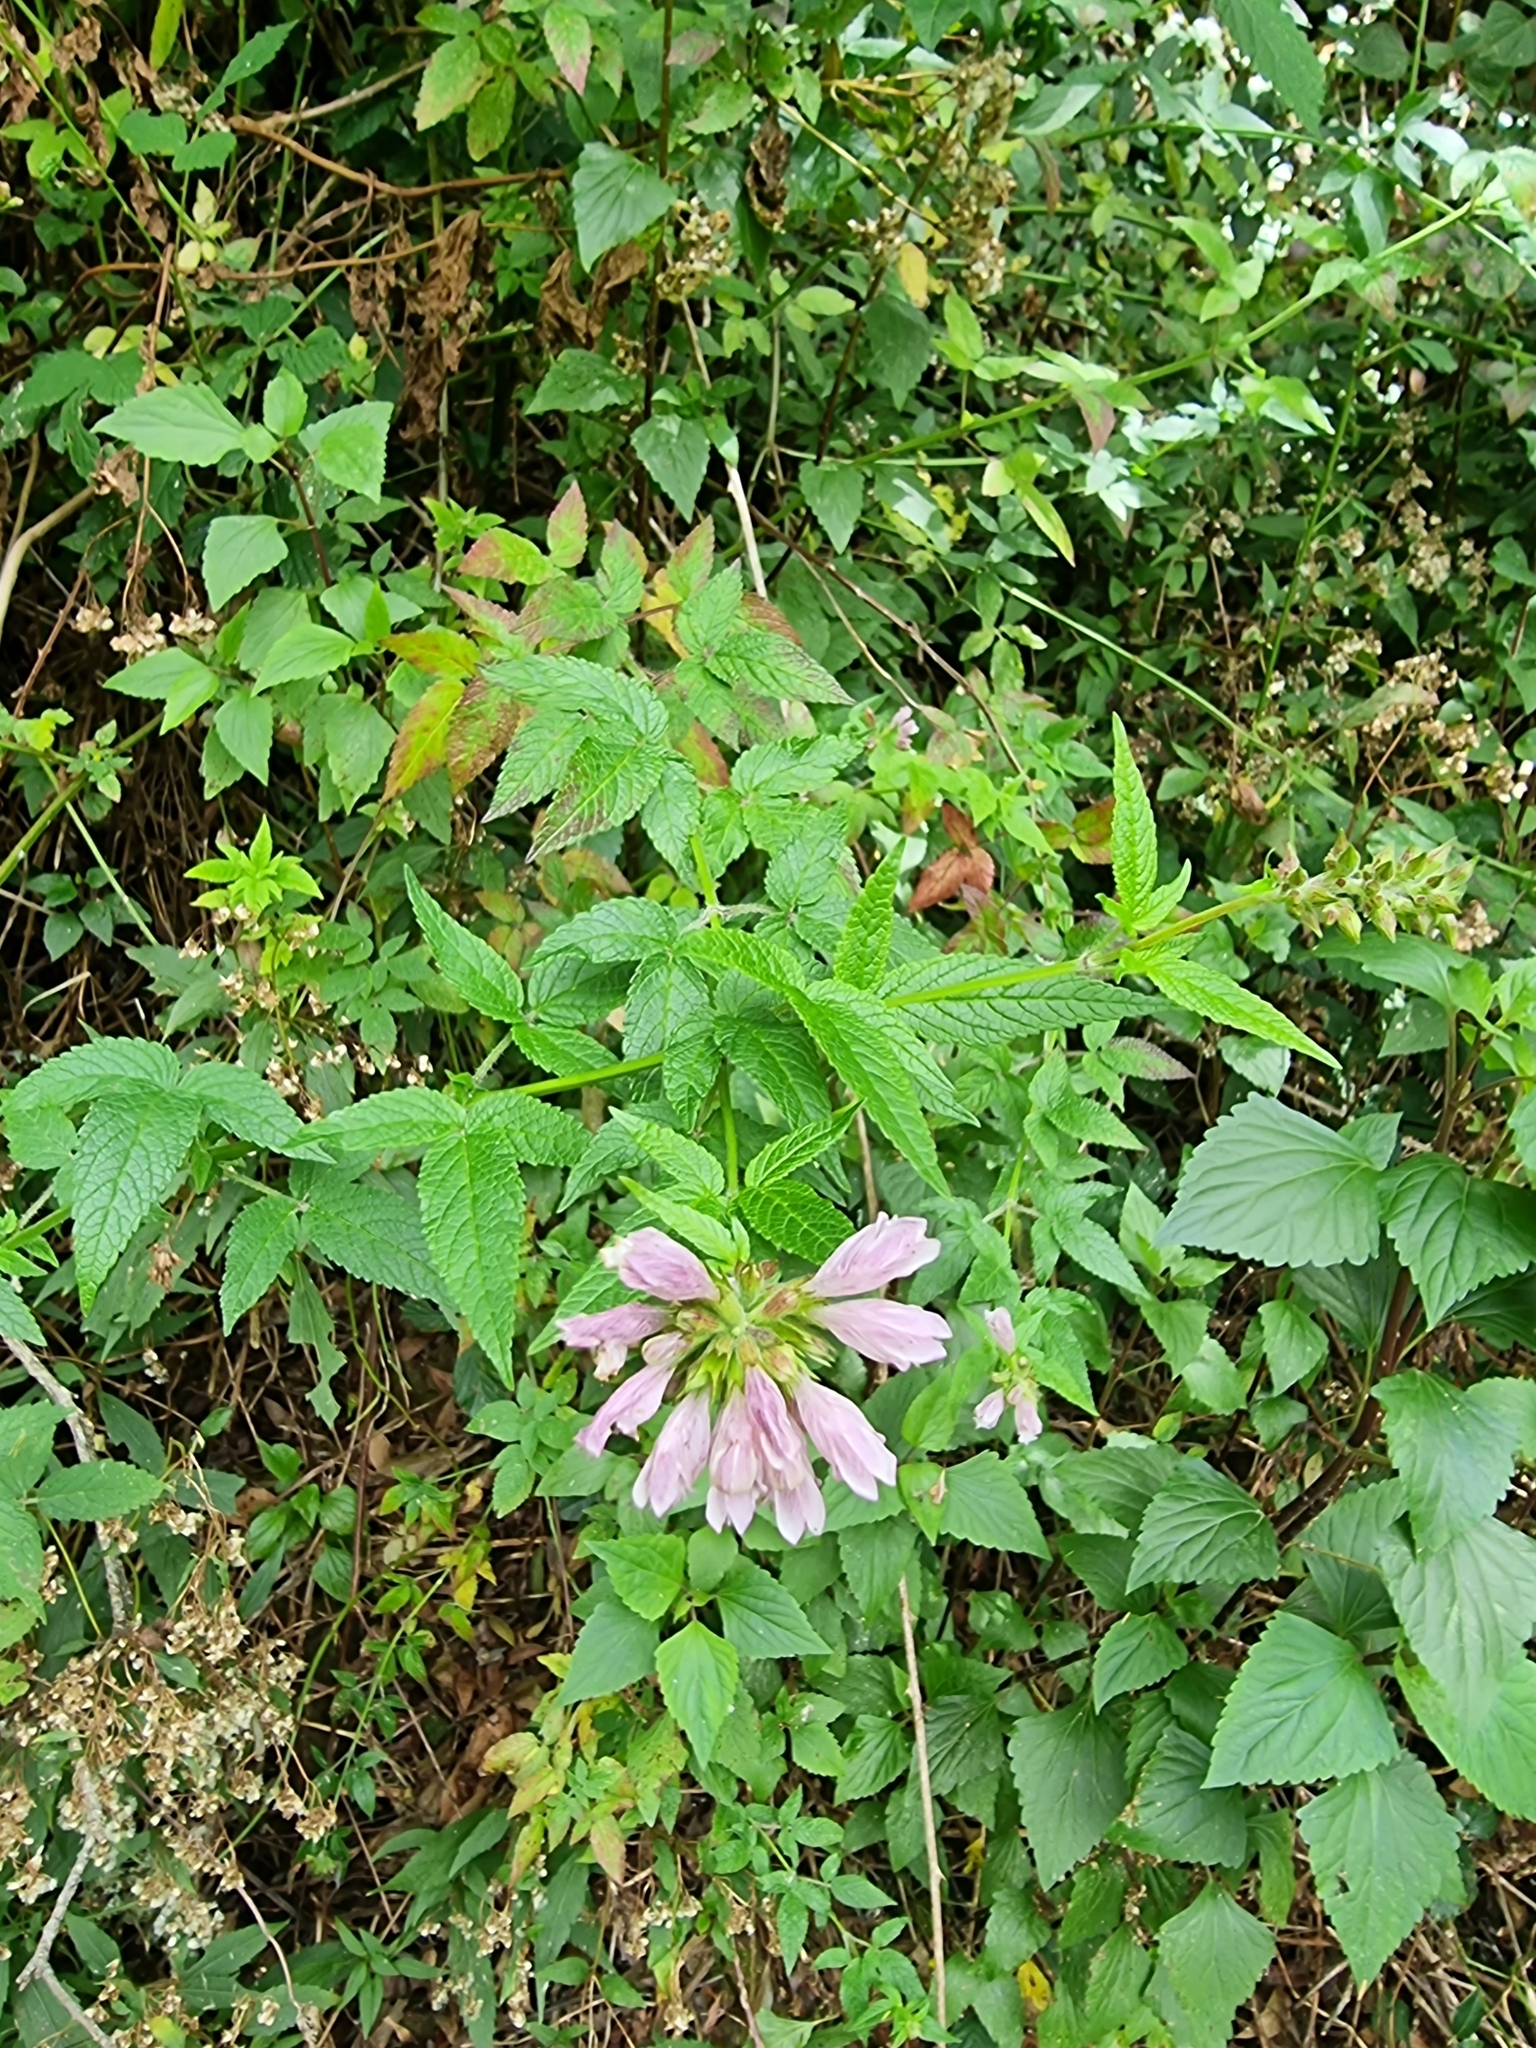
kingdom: Plantae
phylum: Tracheophyta
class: Magnoliopsida
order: Lamiales
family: Lamiaceae
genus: Cedronella
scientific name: Cedronella canariensis
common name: Canary islands balm
